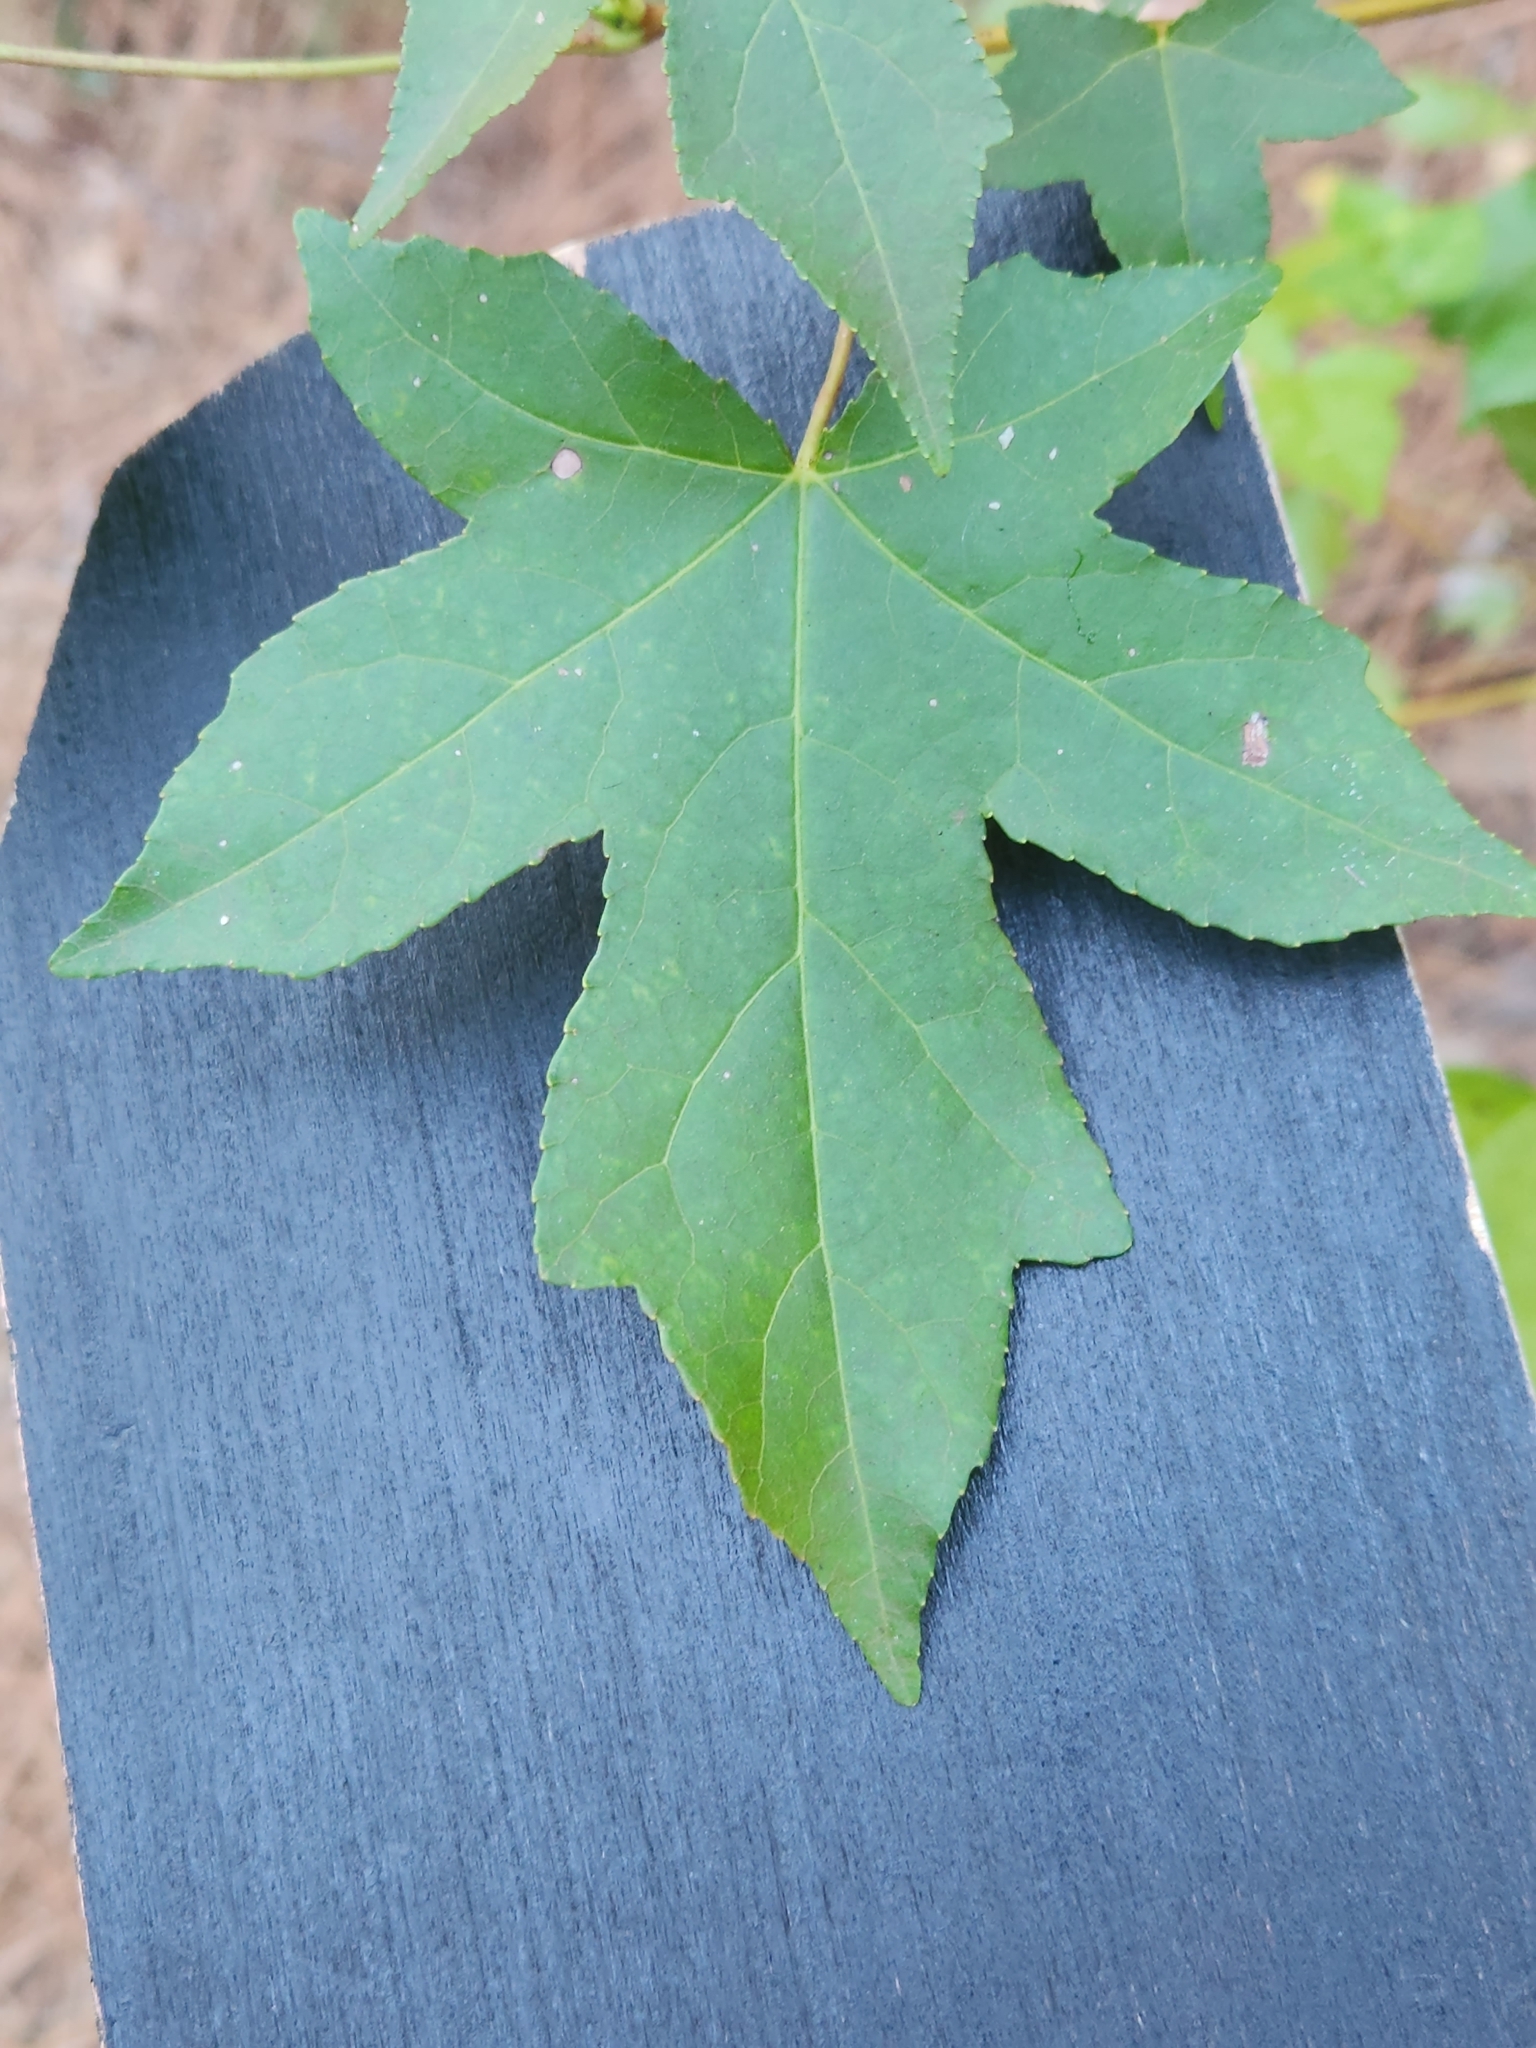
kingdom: Plantae
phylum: Tracheophyta
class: Magnoliopsida
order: Saxifragales
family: Altingiaceae
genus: Liquidambar
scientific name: Liquidambar styraciflua
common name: Sweet gum
